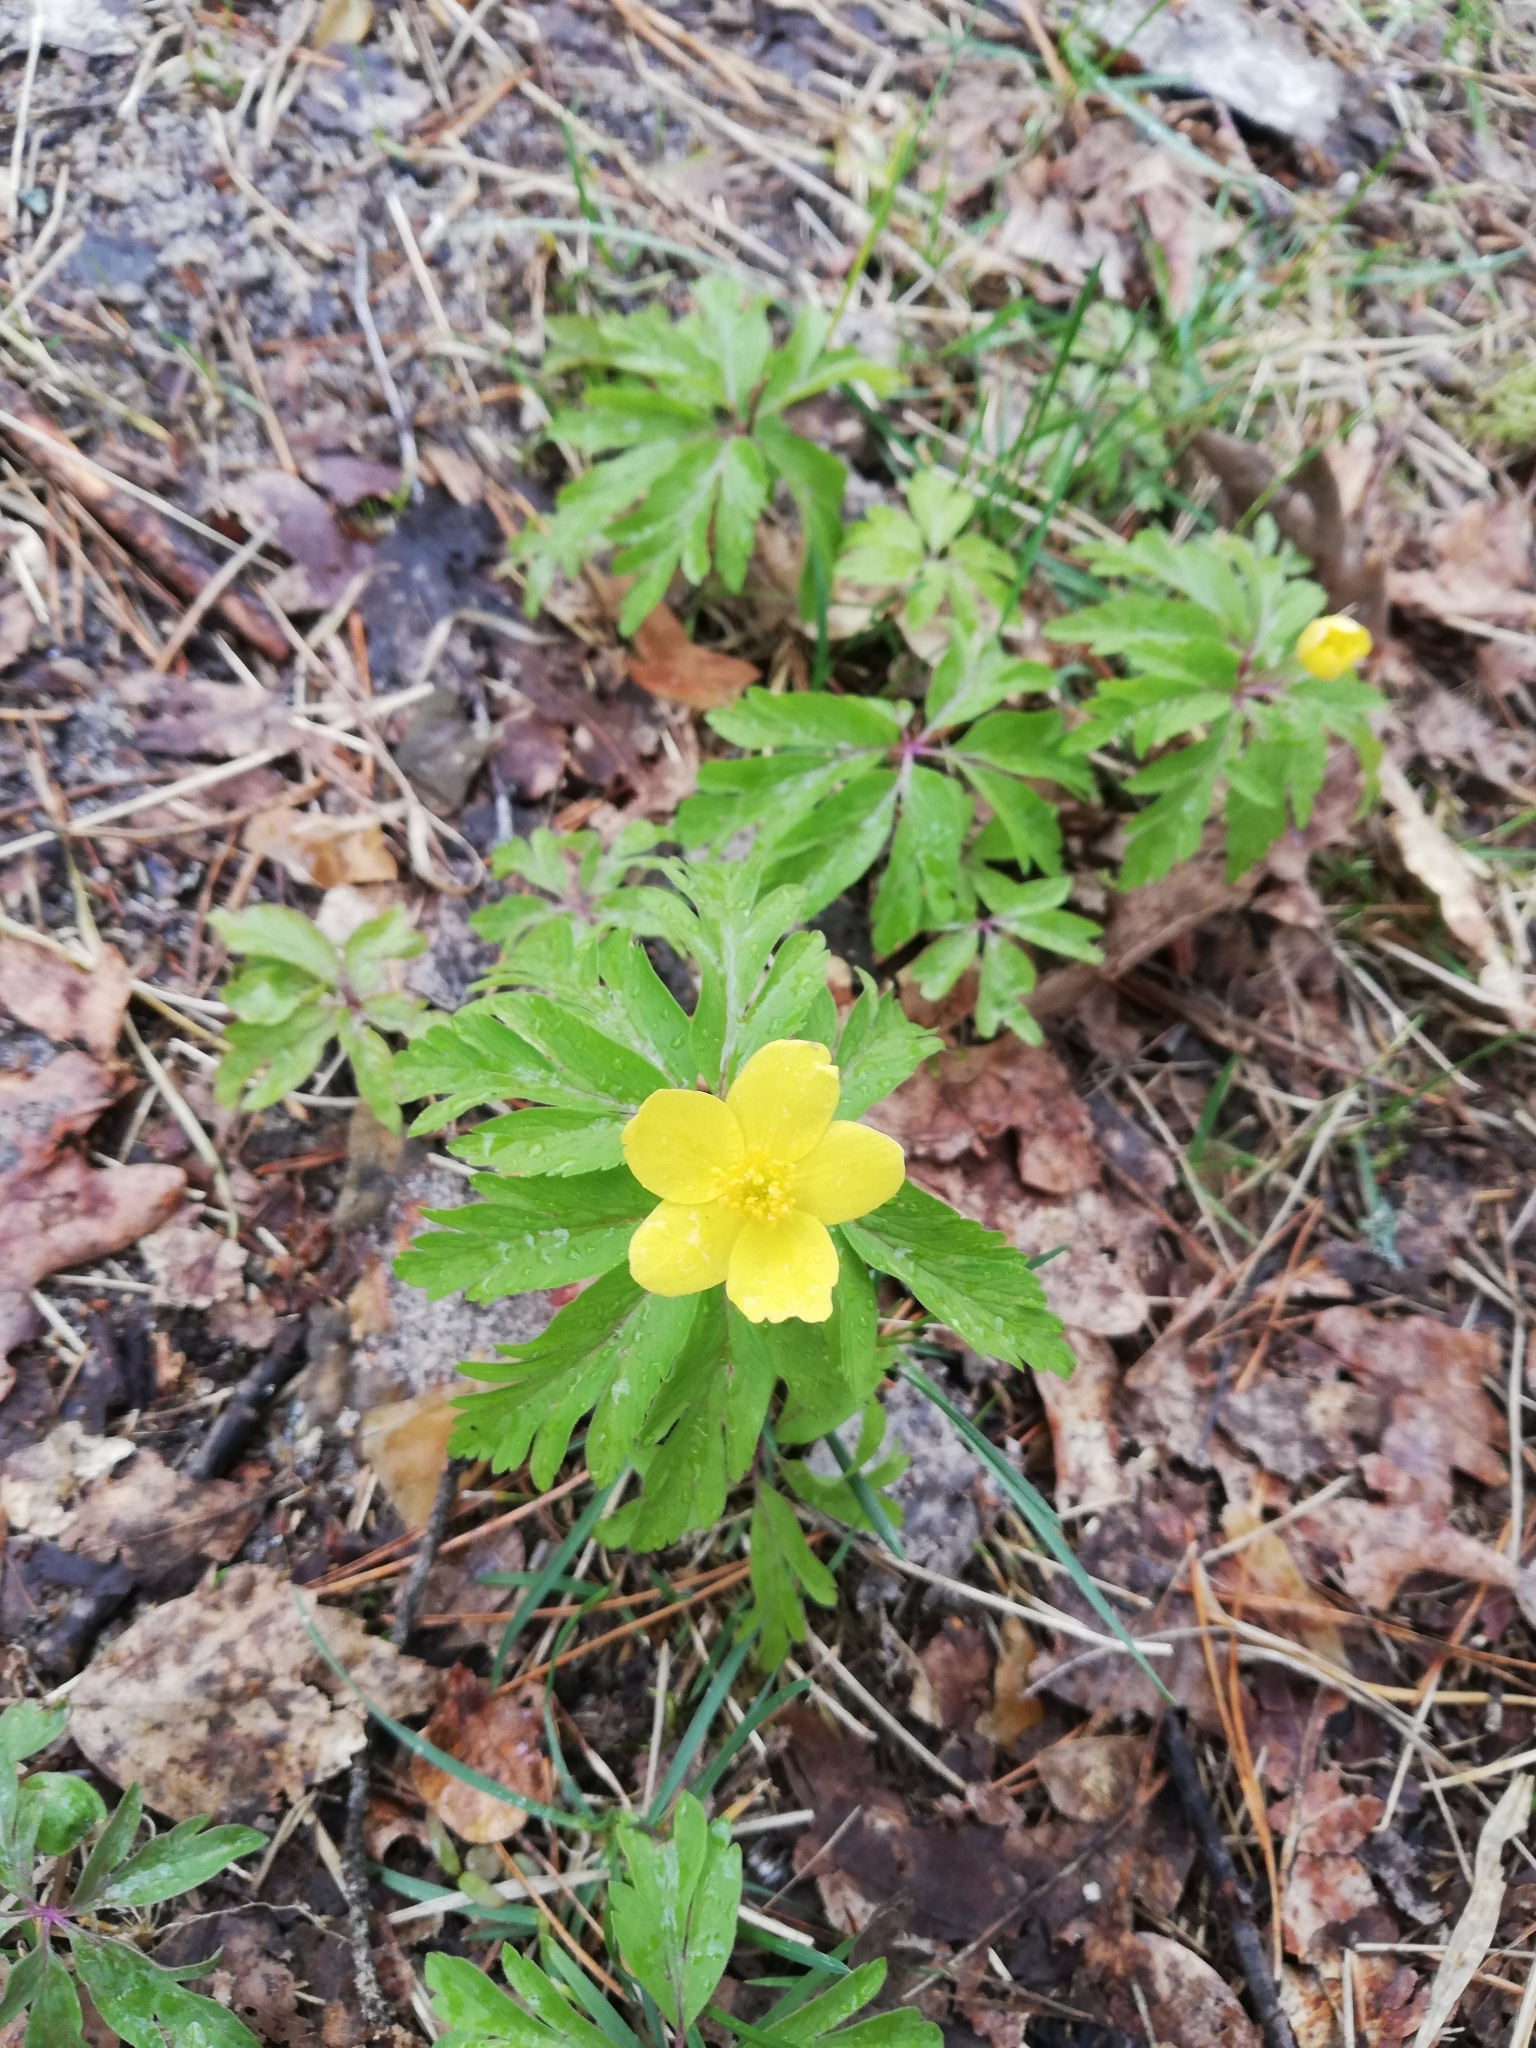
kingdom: Plantae
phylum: Tracheophyta
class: Magnoliopsida
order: Ranunculales
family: Ranunculaceae
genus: Anemone
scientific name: Anemone ranunculoides
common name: Yellow anemone
